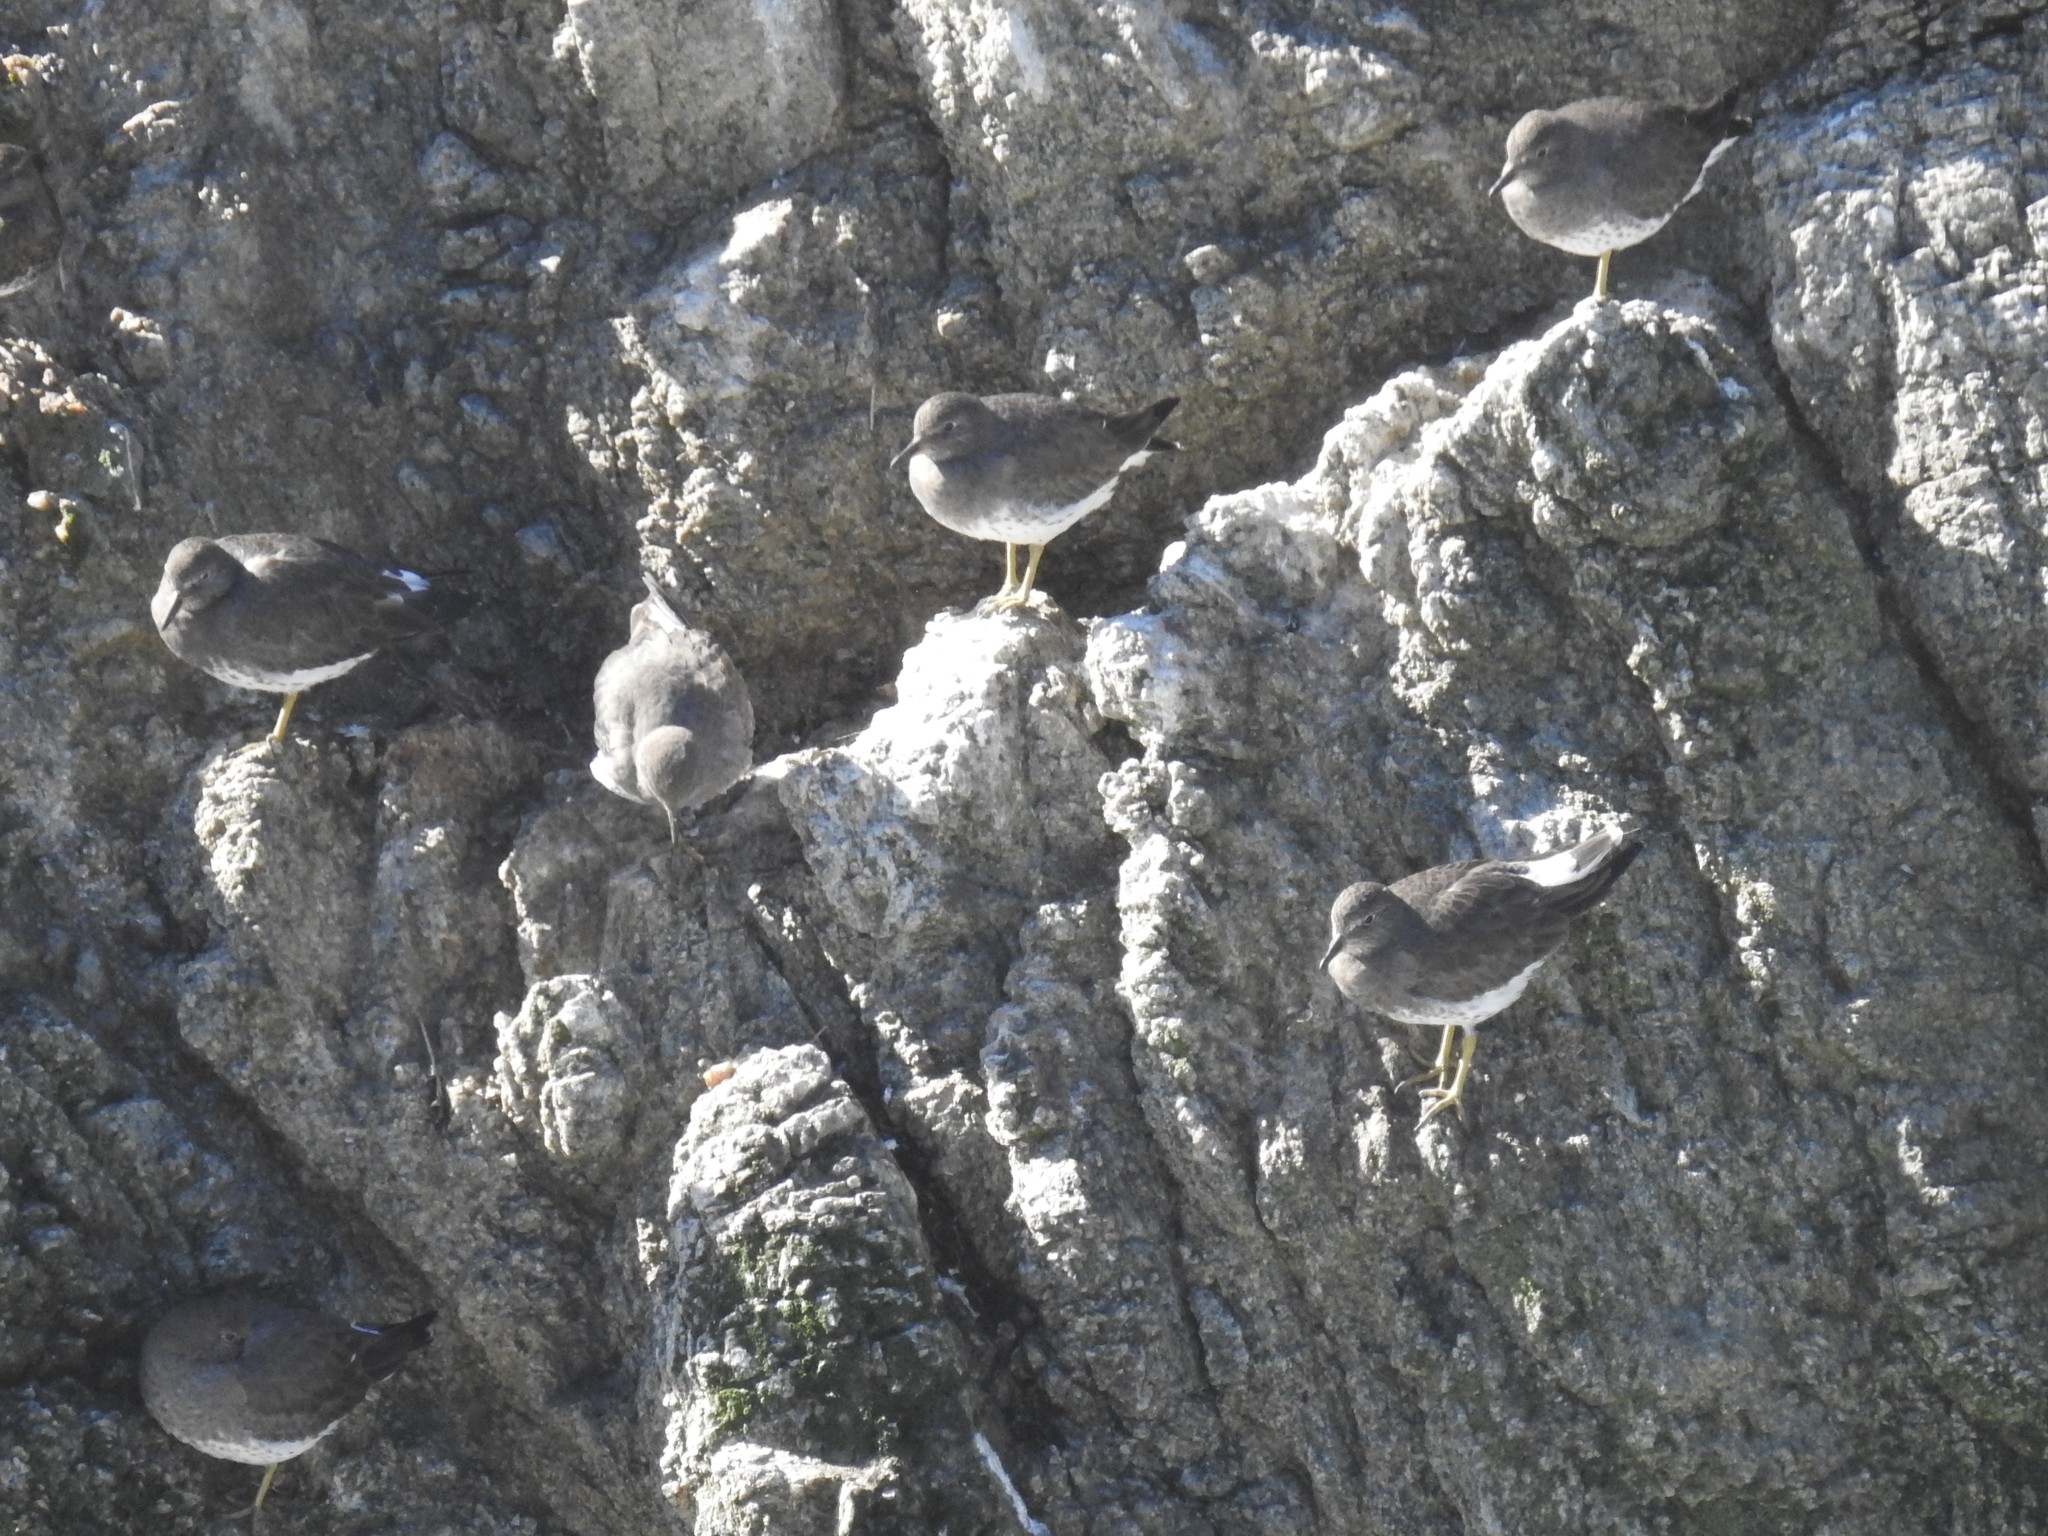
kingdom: Animalia
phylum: Chordata
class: Aves
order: Charadriiformes
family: Scolopacidae
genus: Calidris
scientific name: Calidris virgata
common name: Surfbird
